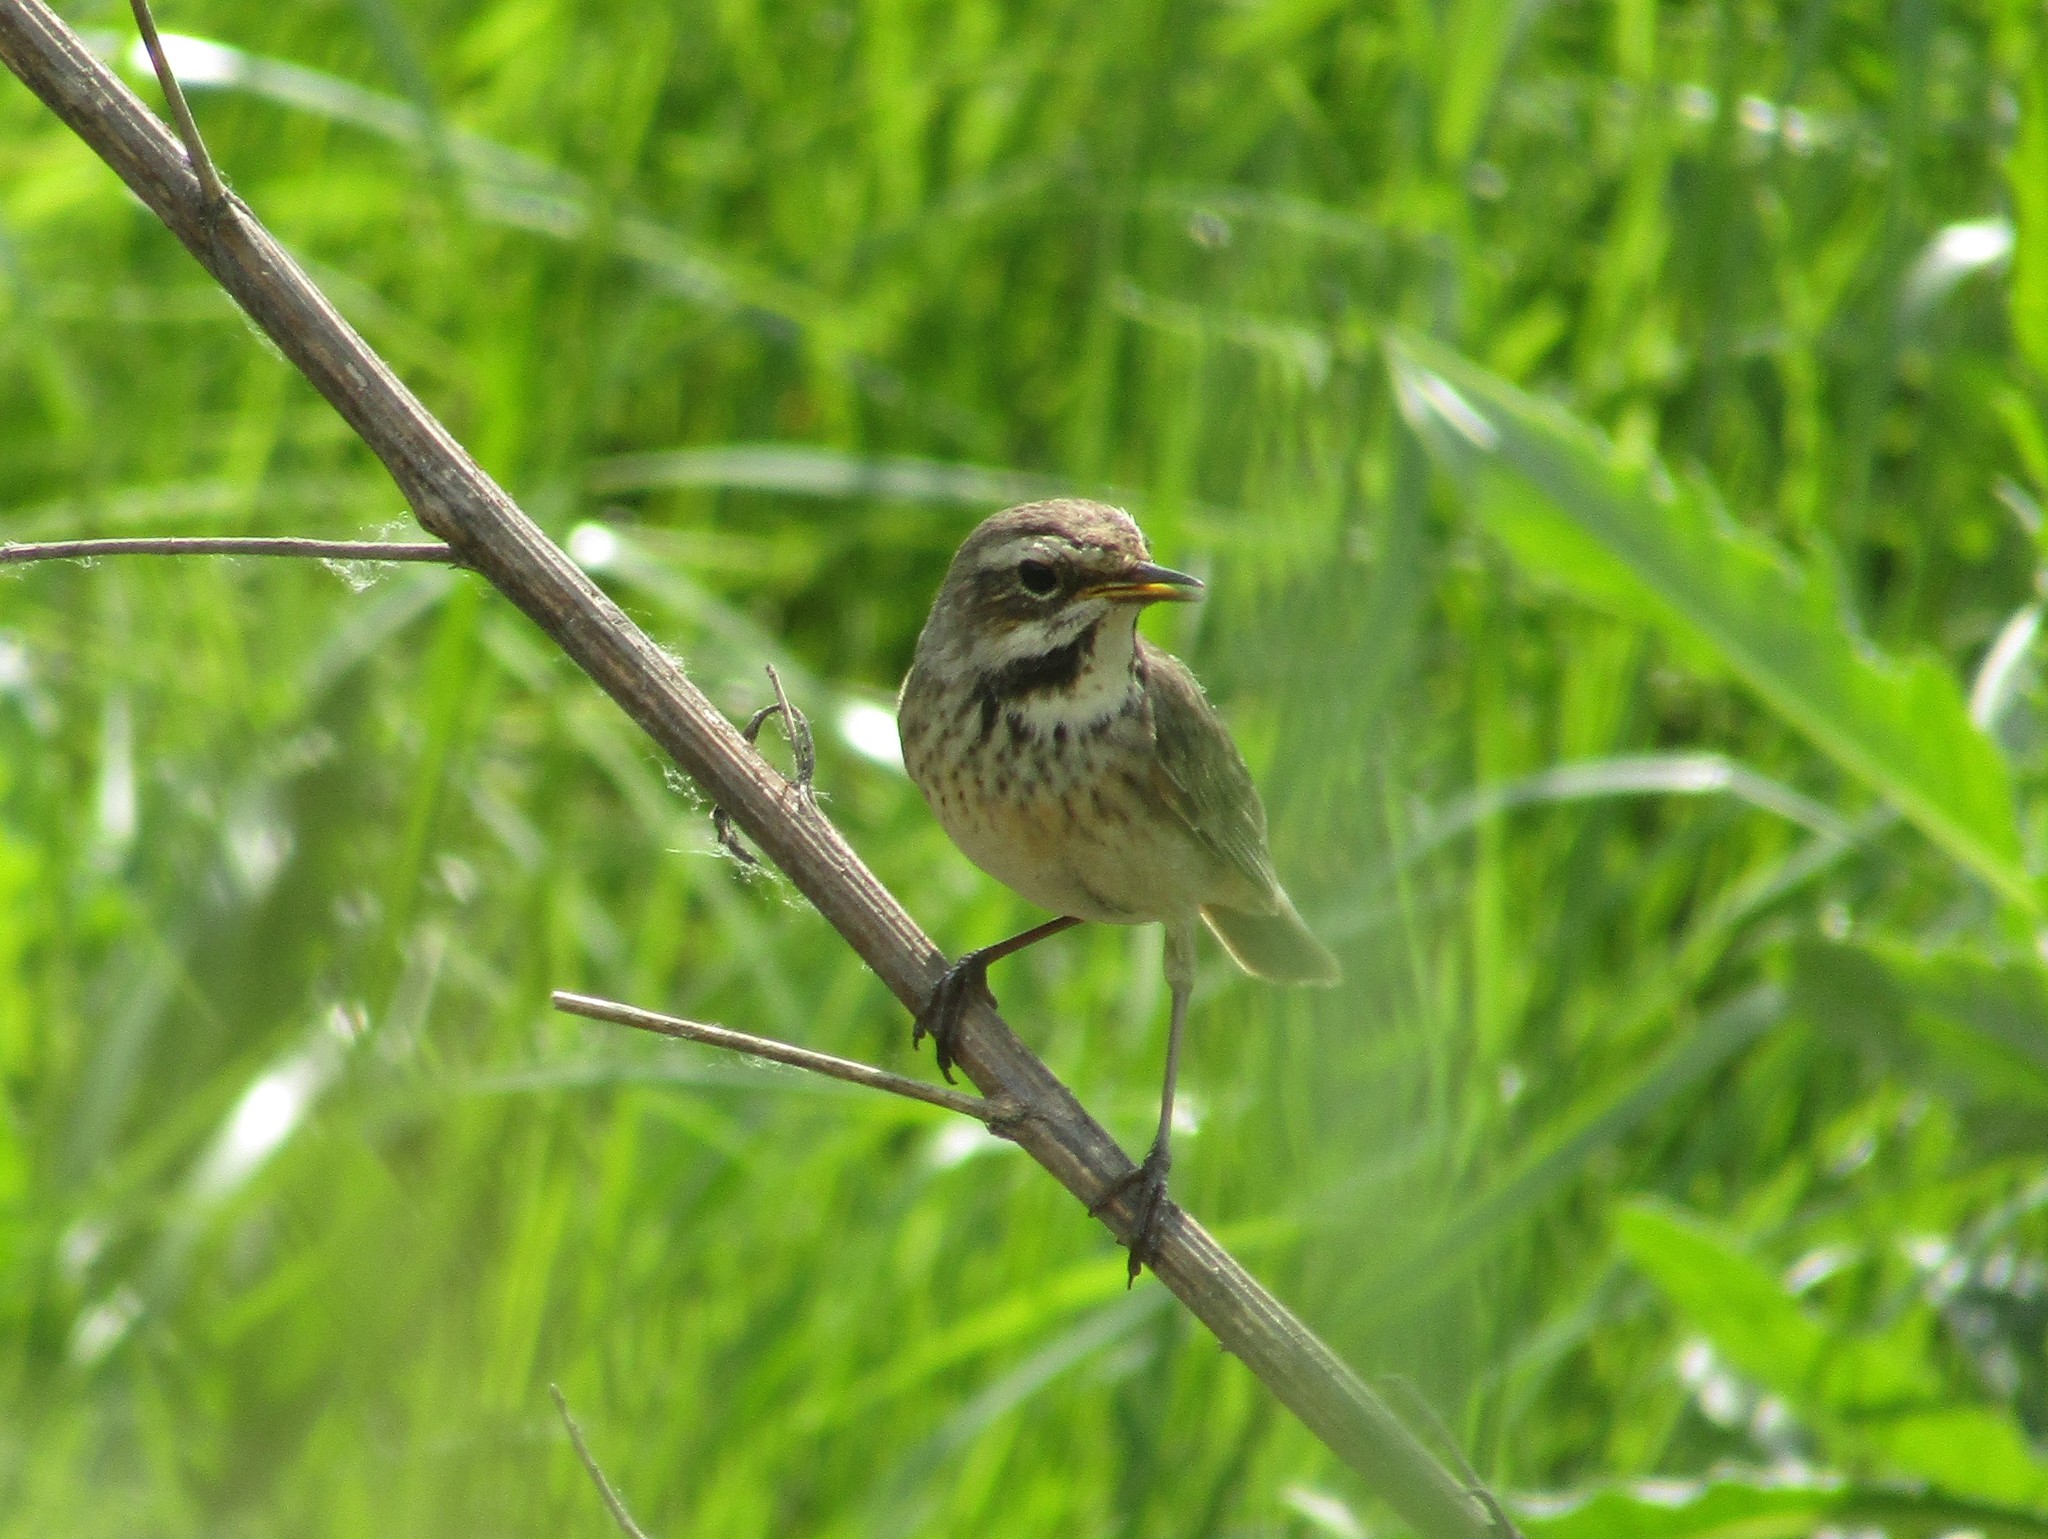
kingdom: Animalia
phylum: Chordata
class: Aves
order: Passeriformes
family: Muscicapidae
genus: Luscinia
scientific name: Luscinia svecica
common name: Bluethroat
